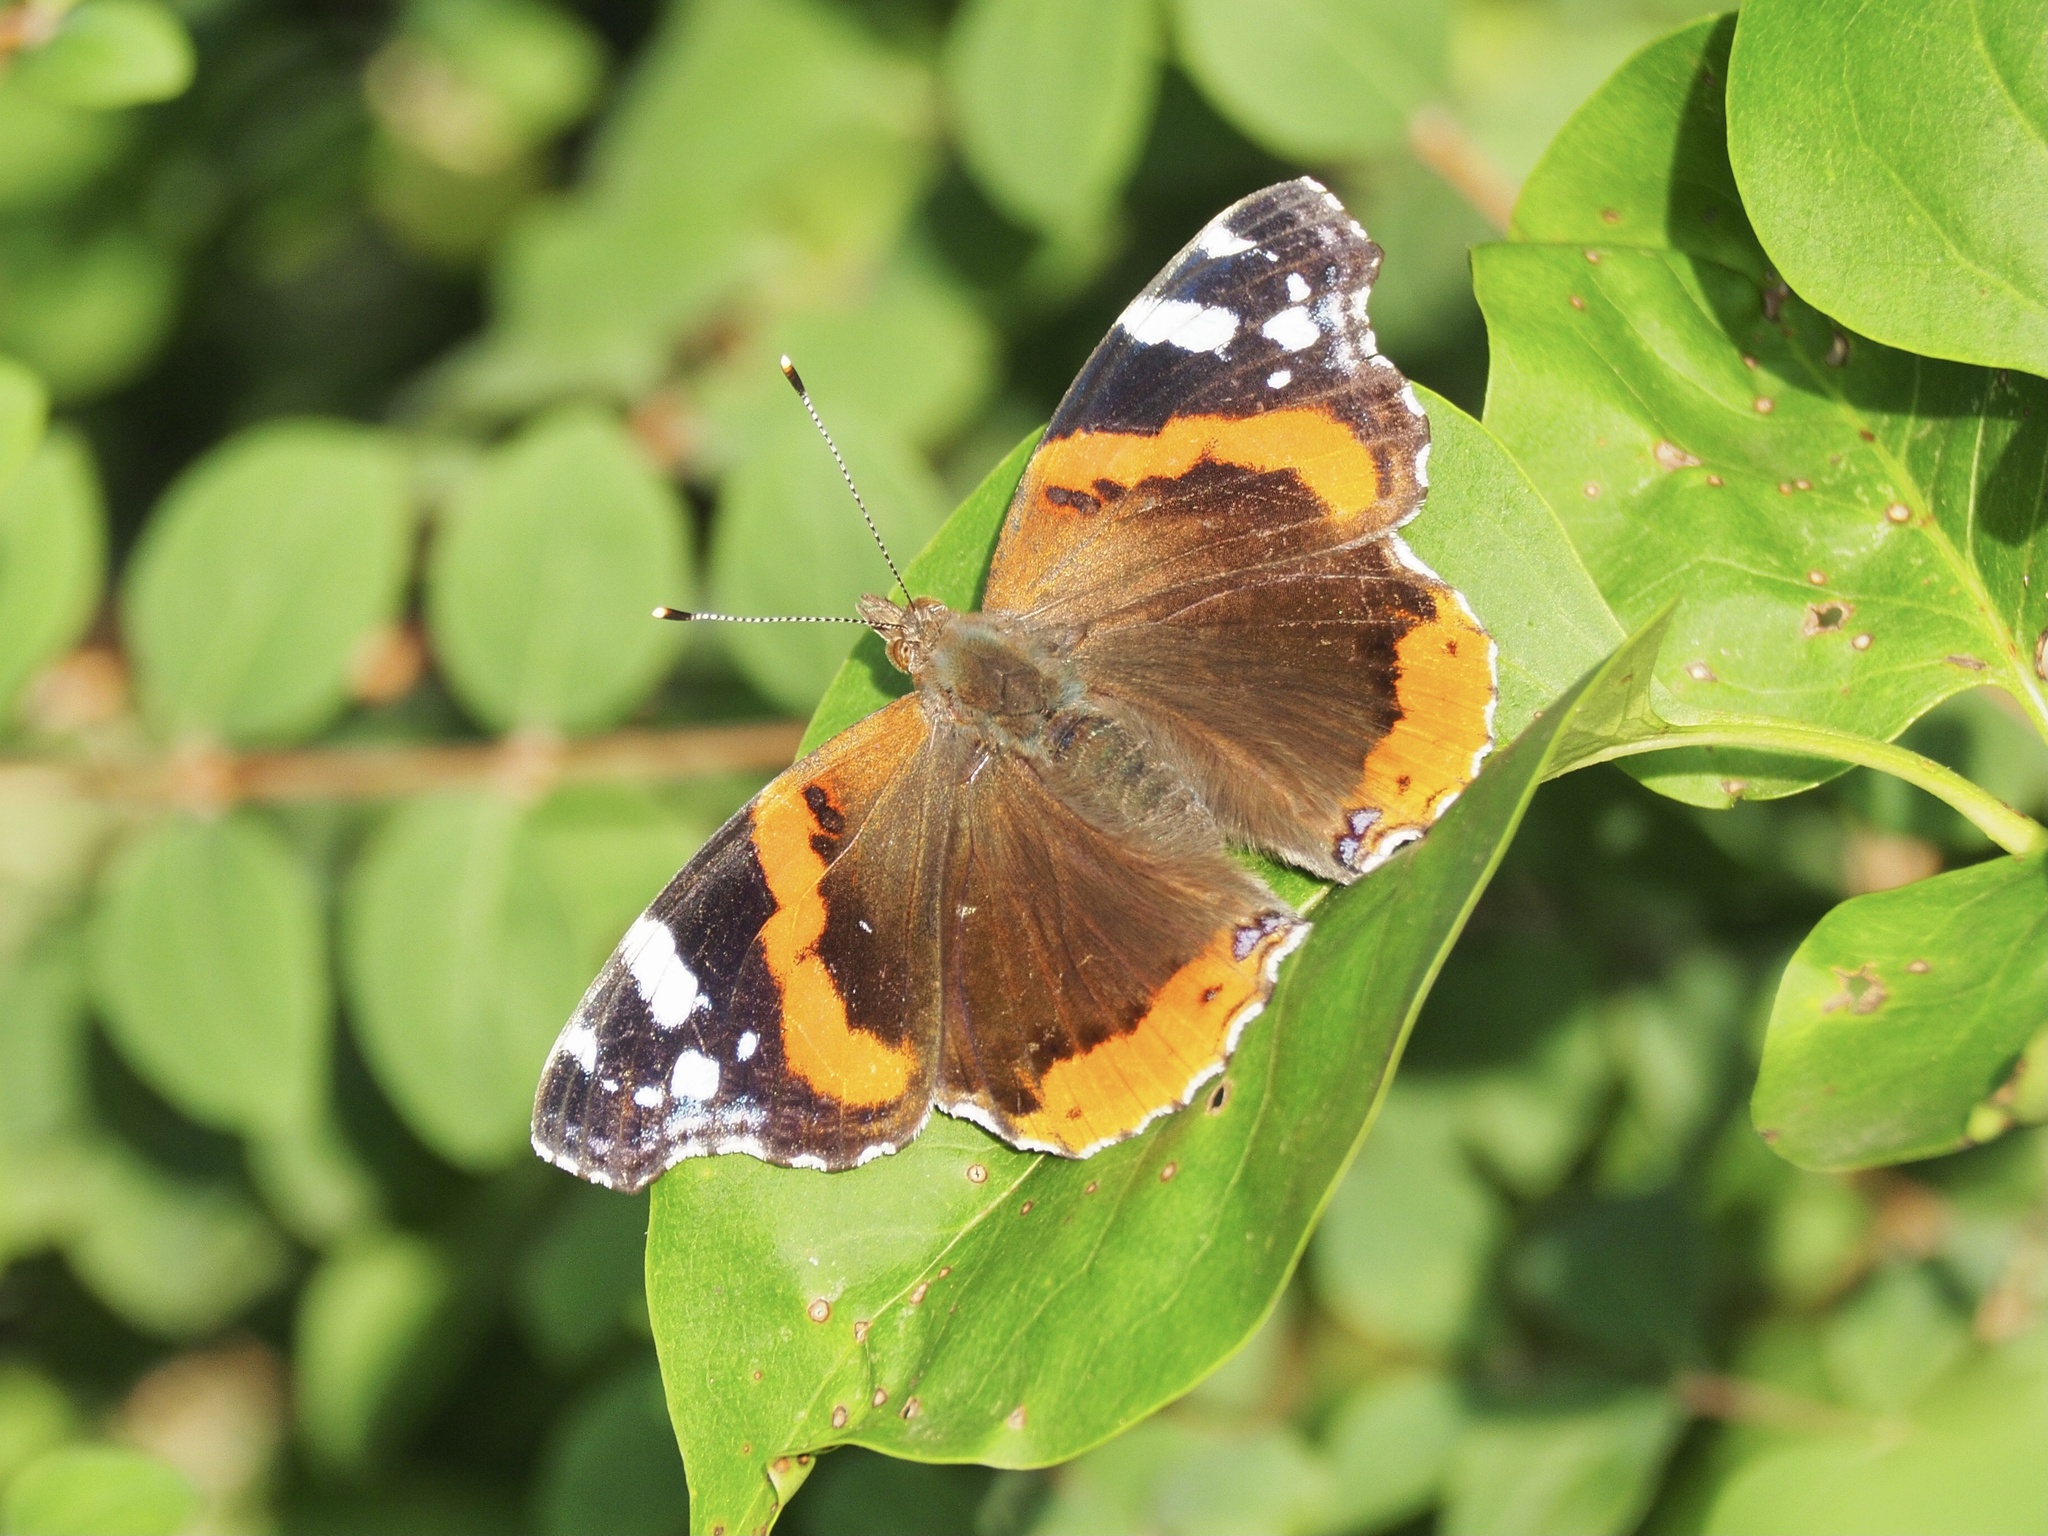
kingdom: Animalia
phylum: Arthropoda
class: Insecta
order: Lepidoptera
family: Nymphalidae
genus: Vanessa
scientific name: Vanessa atalanta
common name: Red admiral
